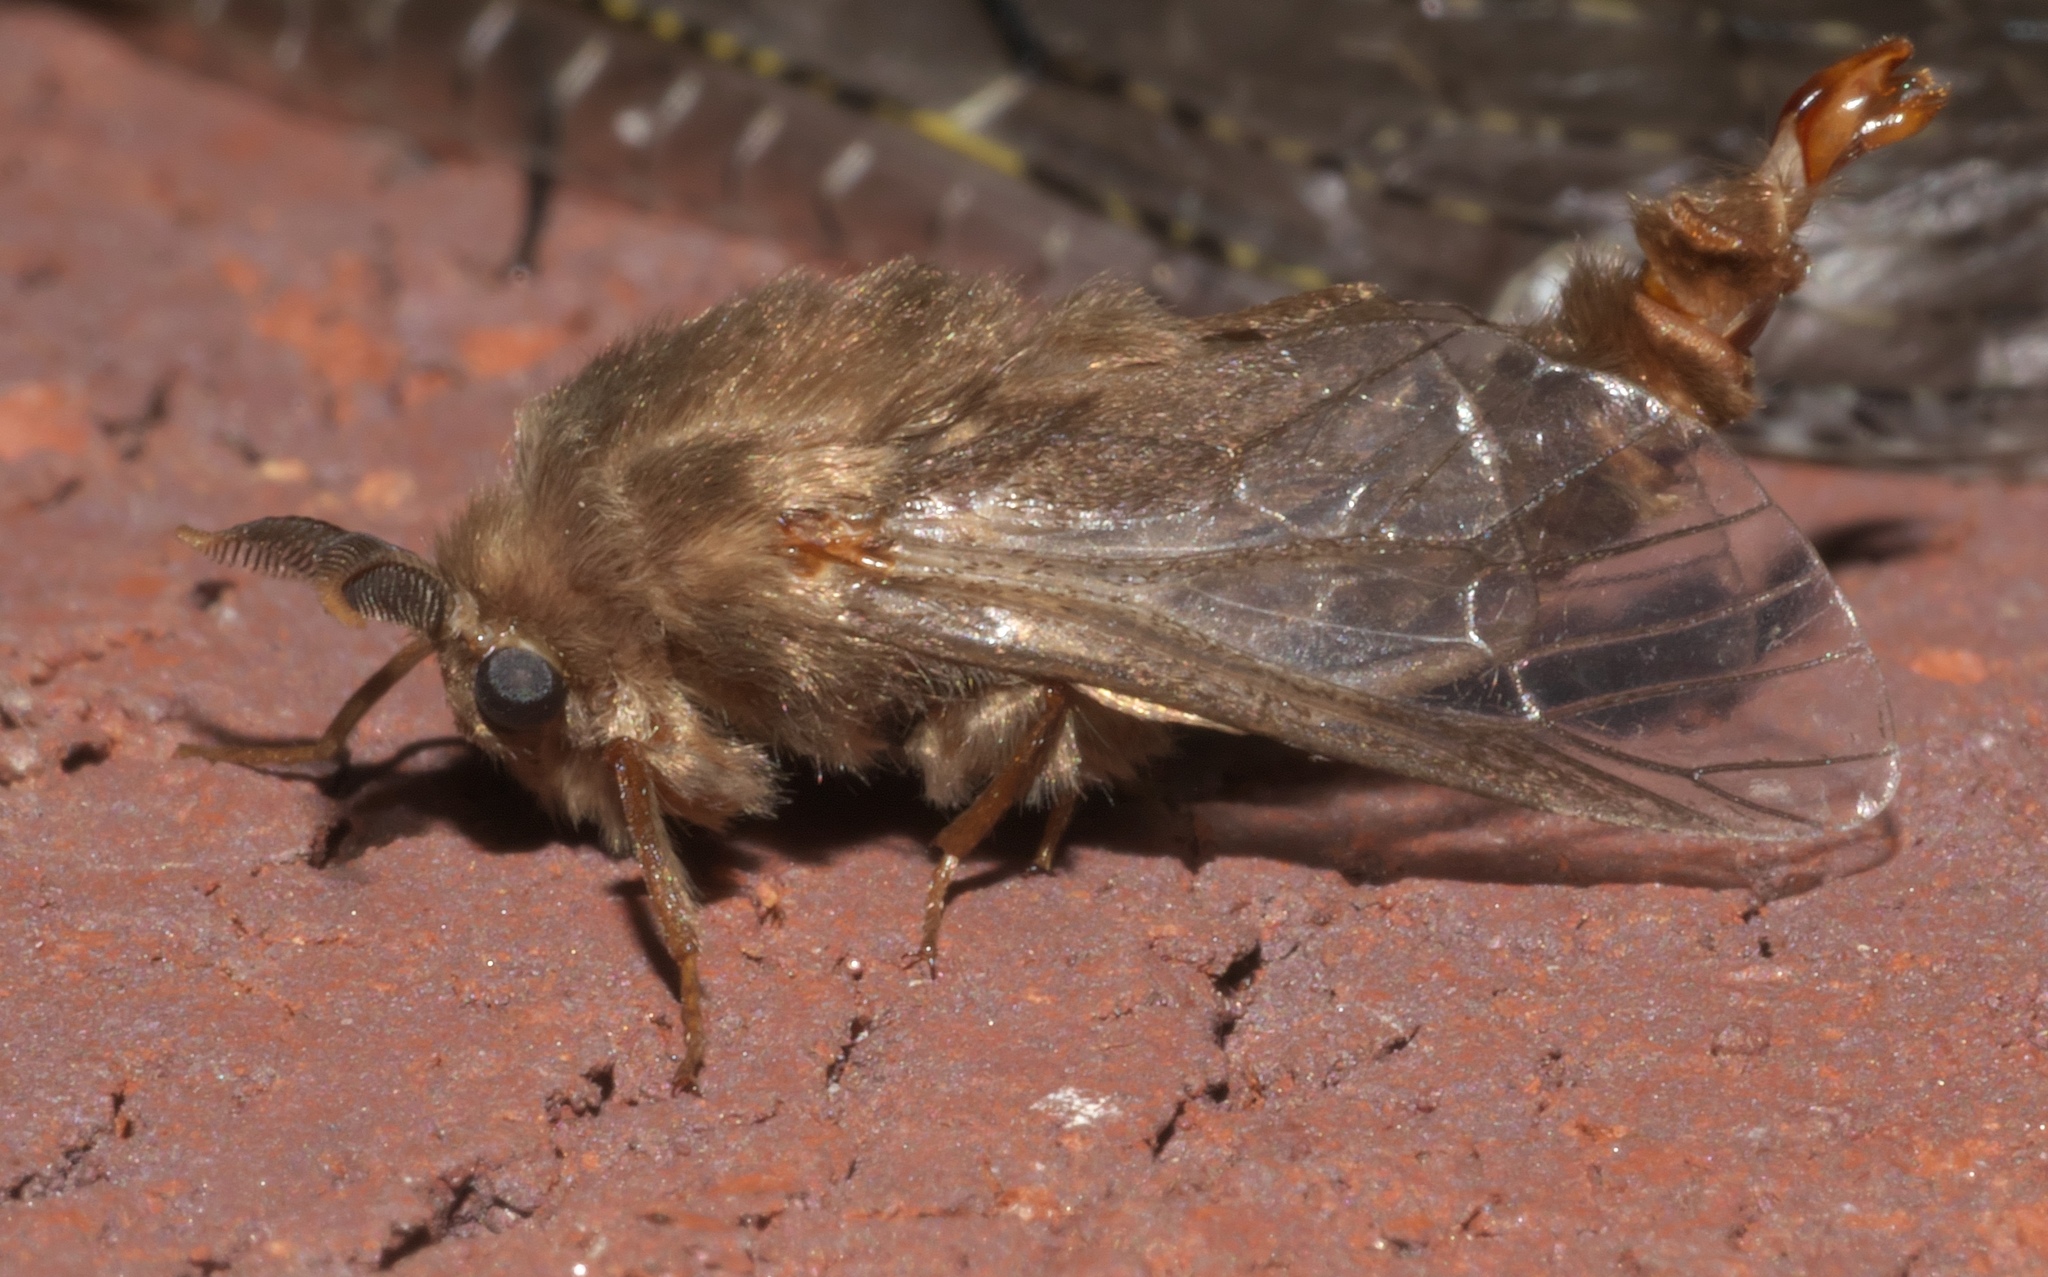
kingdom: Animalia
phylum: Arthropoda
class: Insecta
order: Lepidoptera
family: Psychidae
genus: Thyridopteryx
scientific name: Thyridopteryx ephemeraeformis
